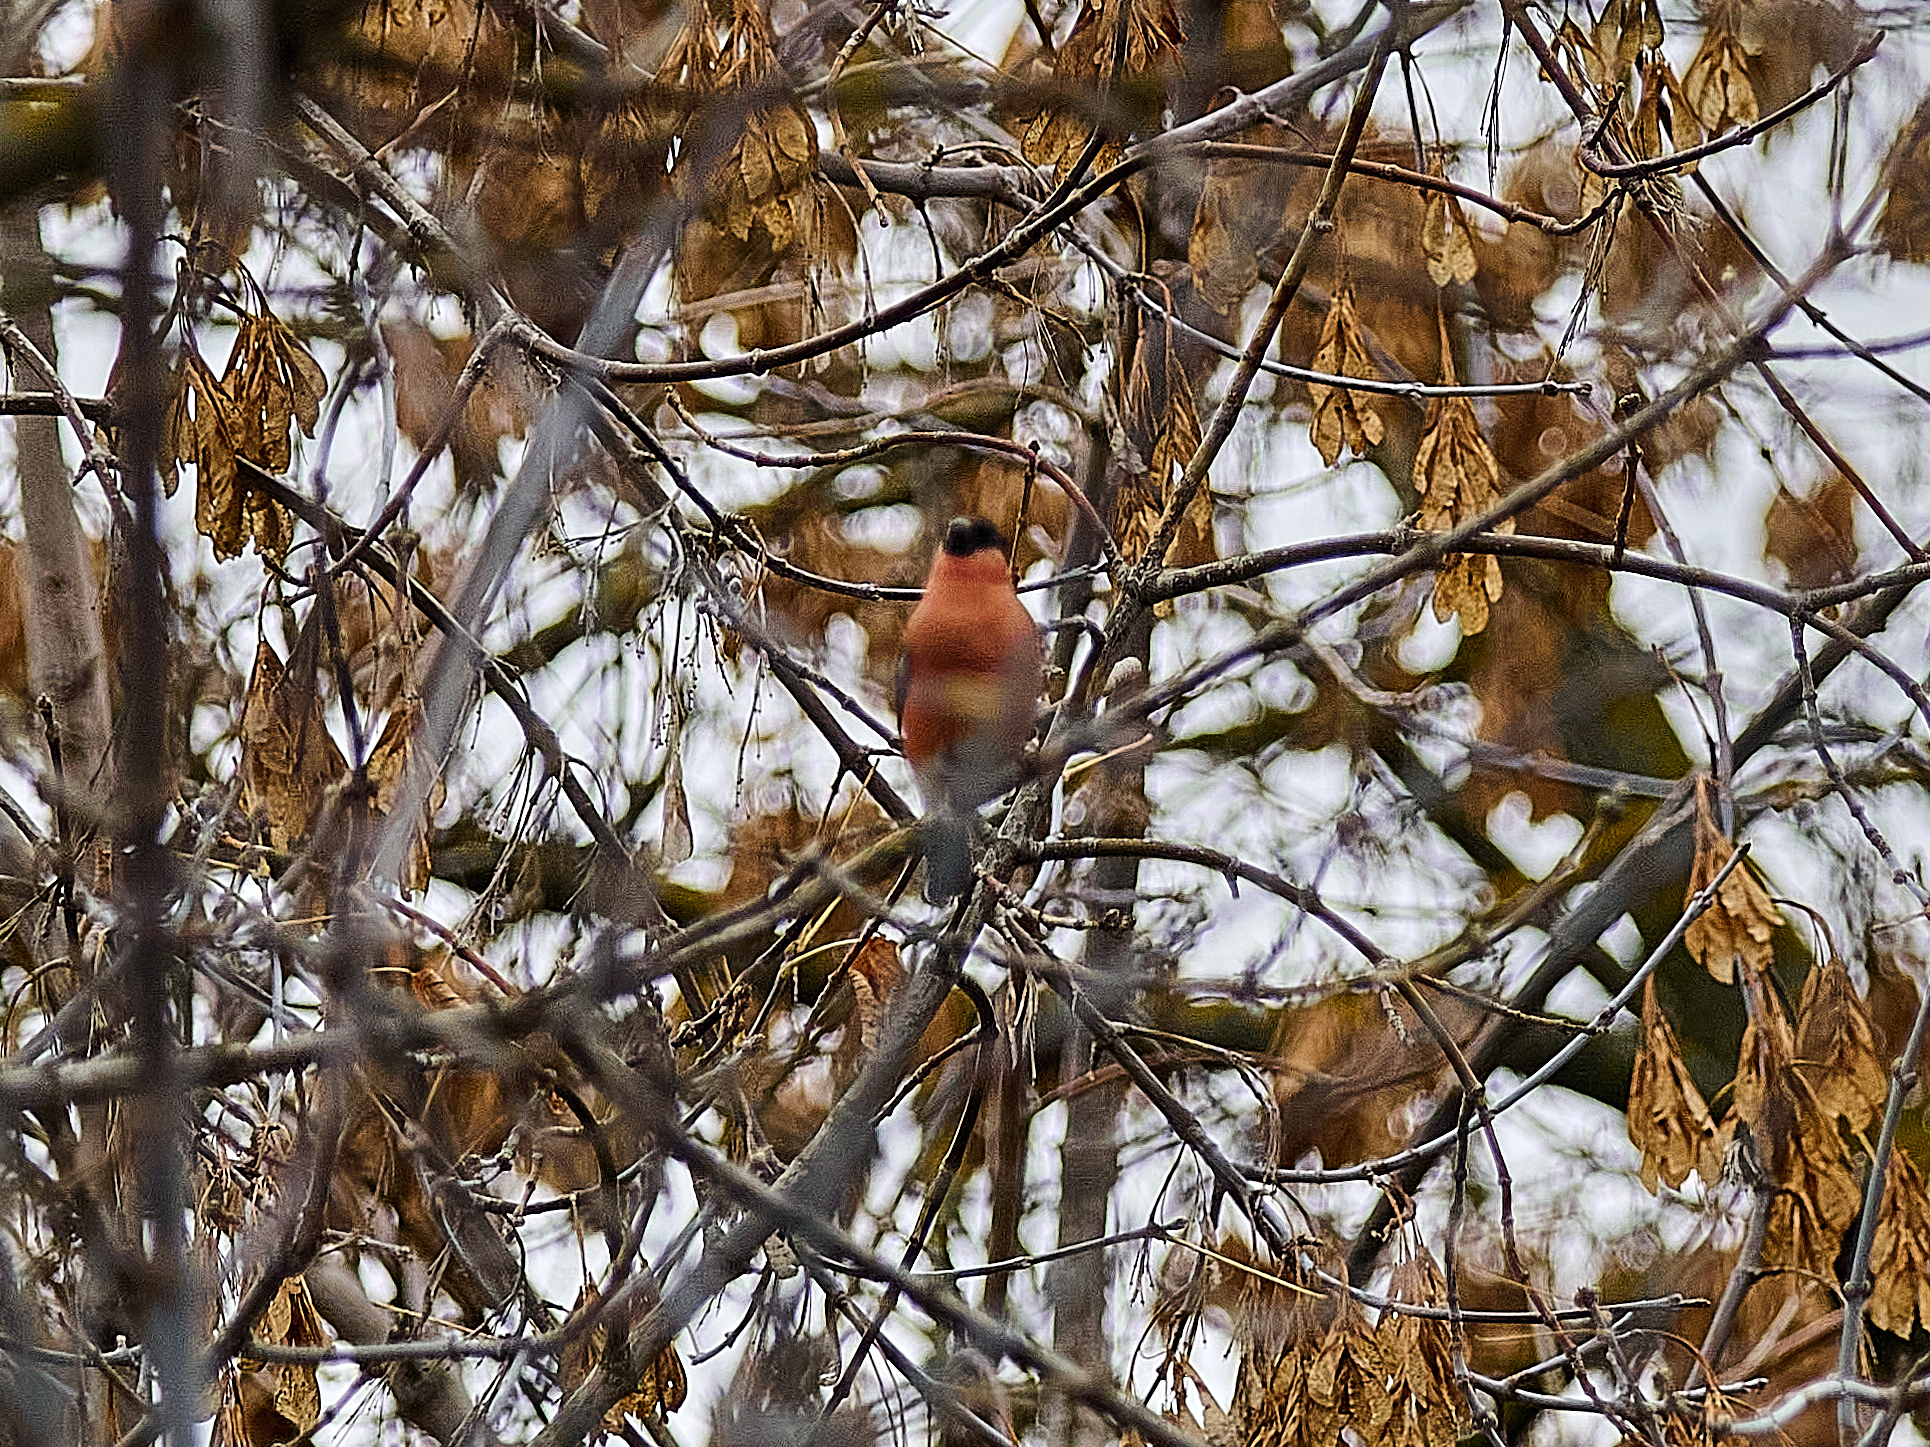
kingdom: Animalia
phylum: Chordata
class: Aves
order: Passeriformes
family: Fringillidae
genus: Pyrrhula
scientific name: Pyrrhula pyrrhula
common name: Eurasian bullfinch
